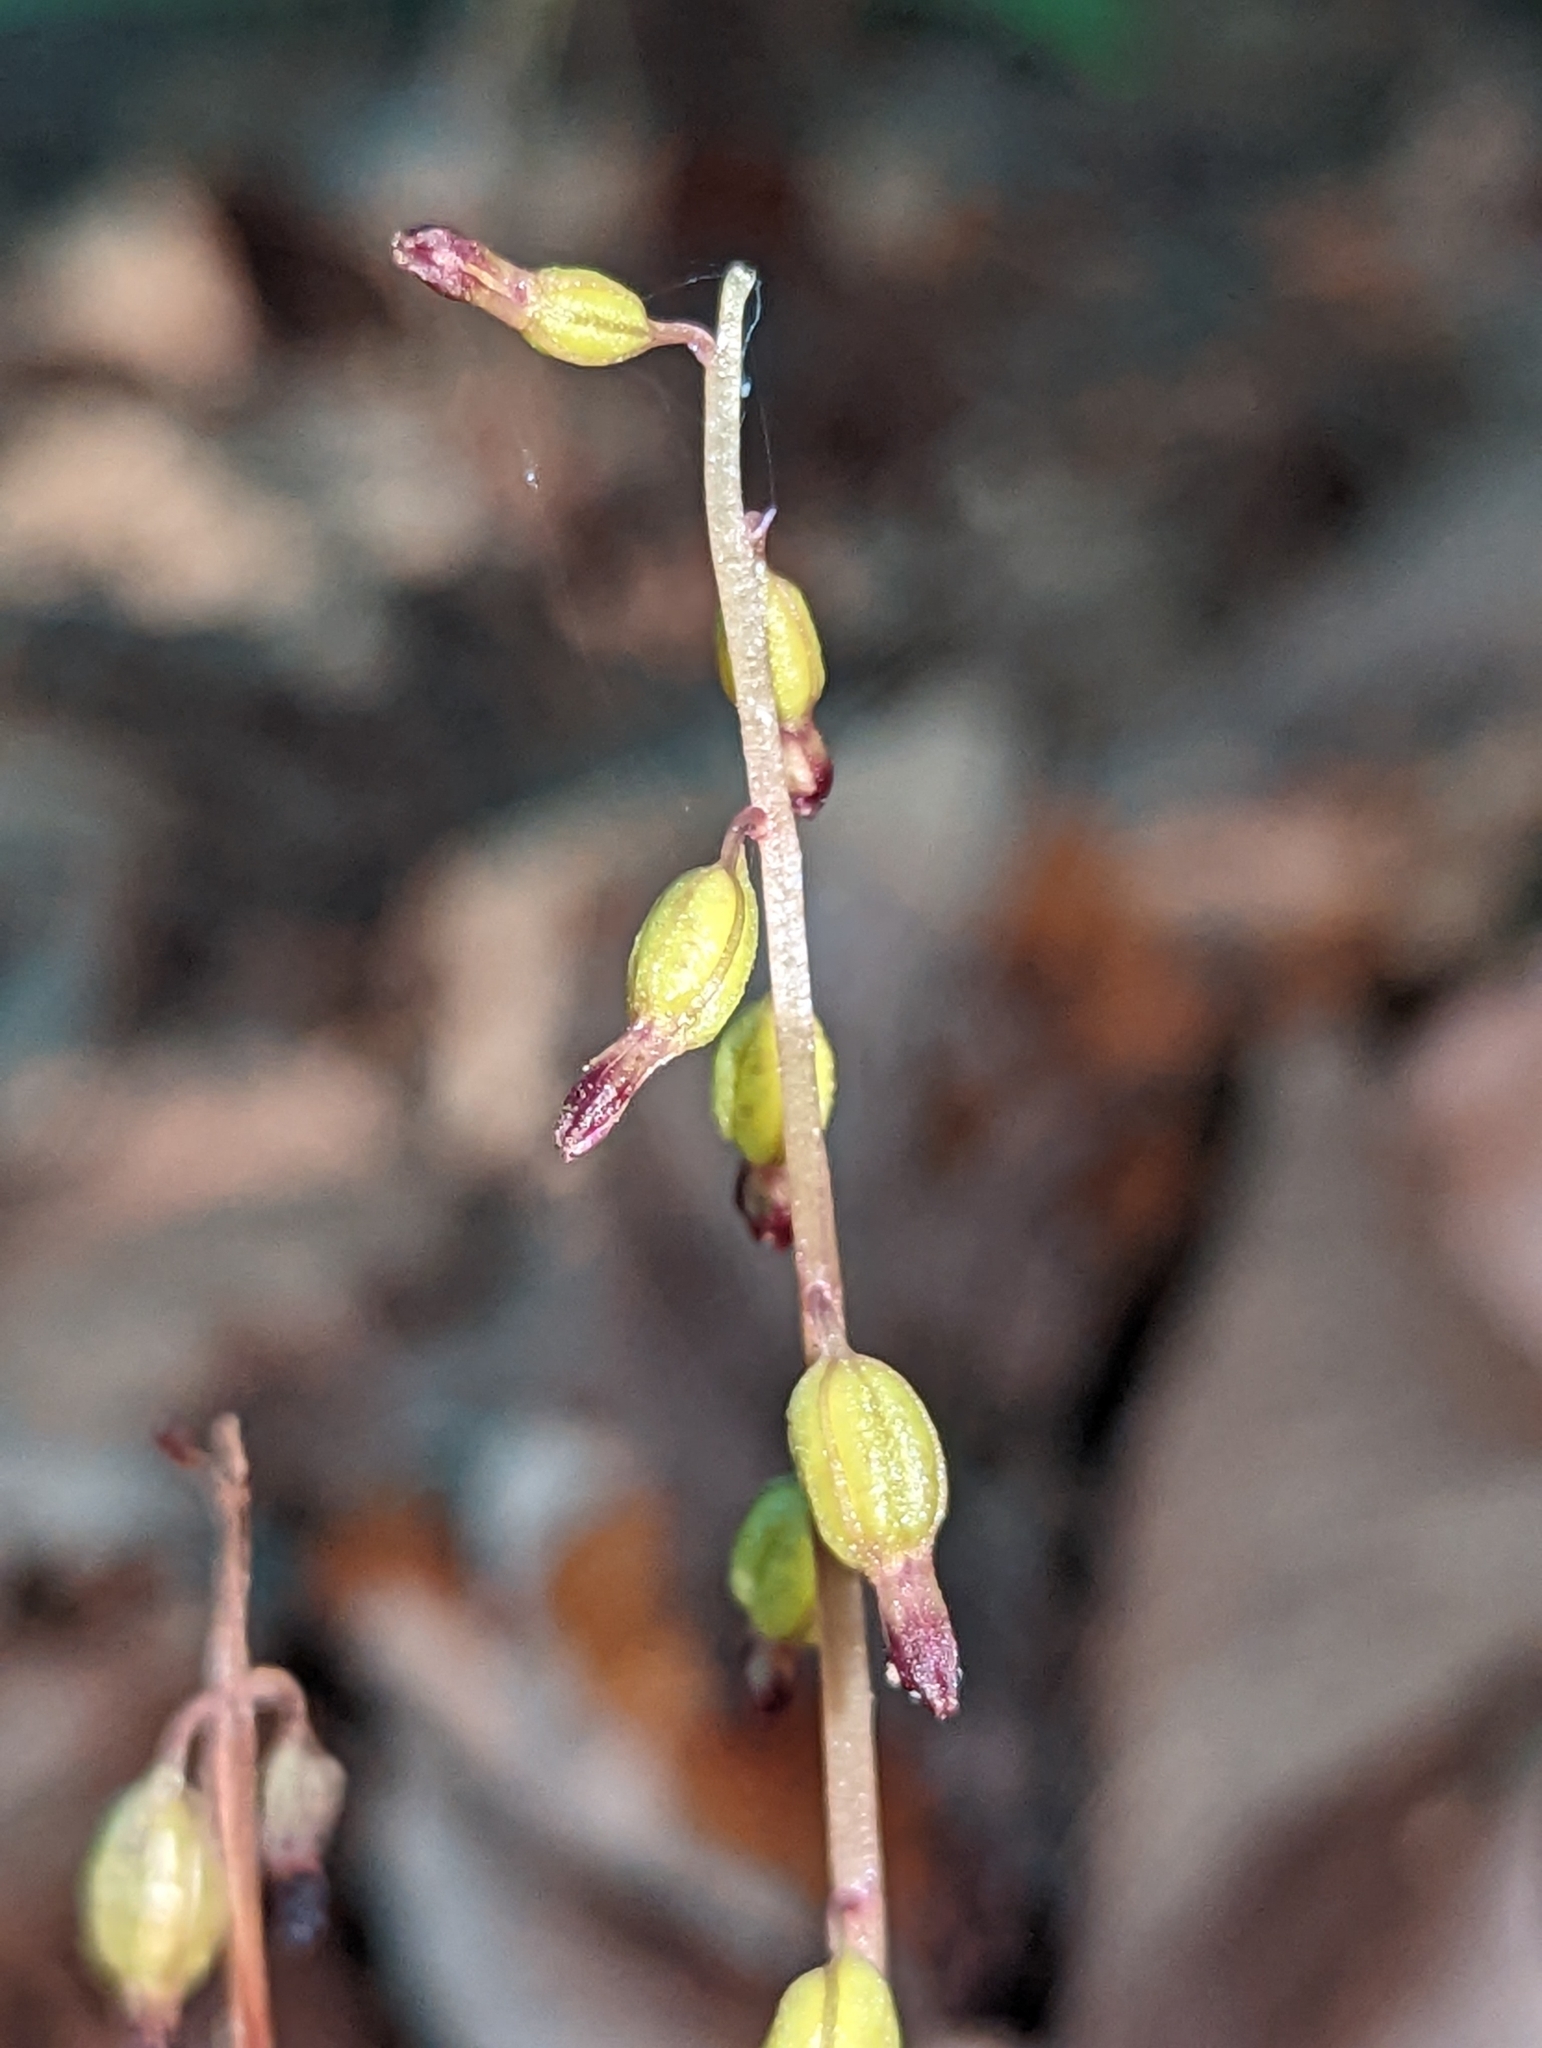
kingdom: Plantae
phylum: Tracheophyta
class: Liliopsida
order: Asparagales
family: Orchidaceae
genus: Corallorhiza
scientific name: Corallorhiza odontorhiza
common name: Autumn coralroot
